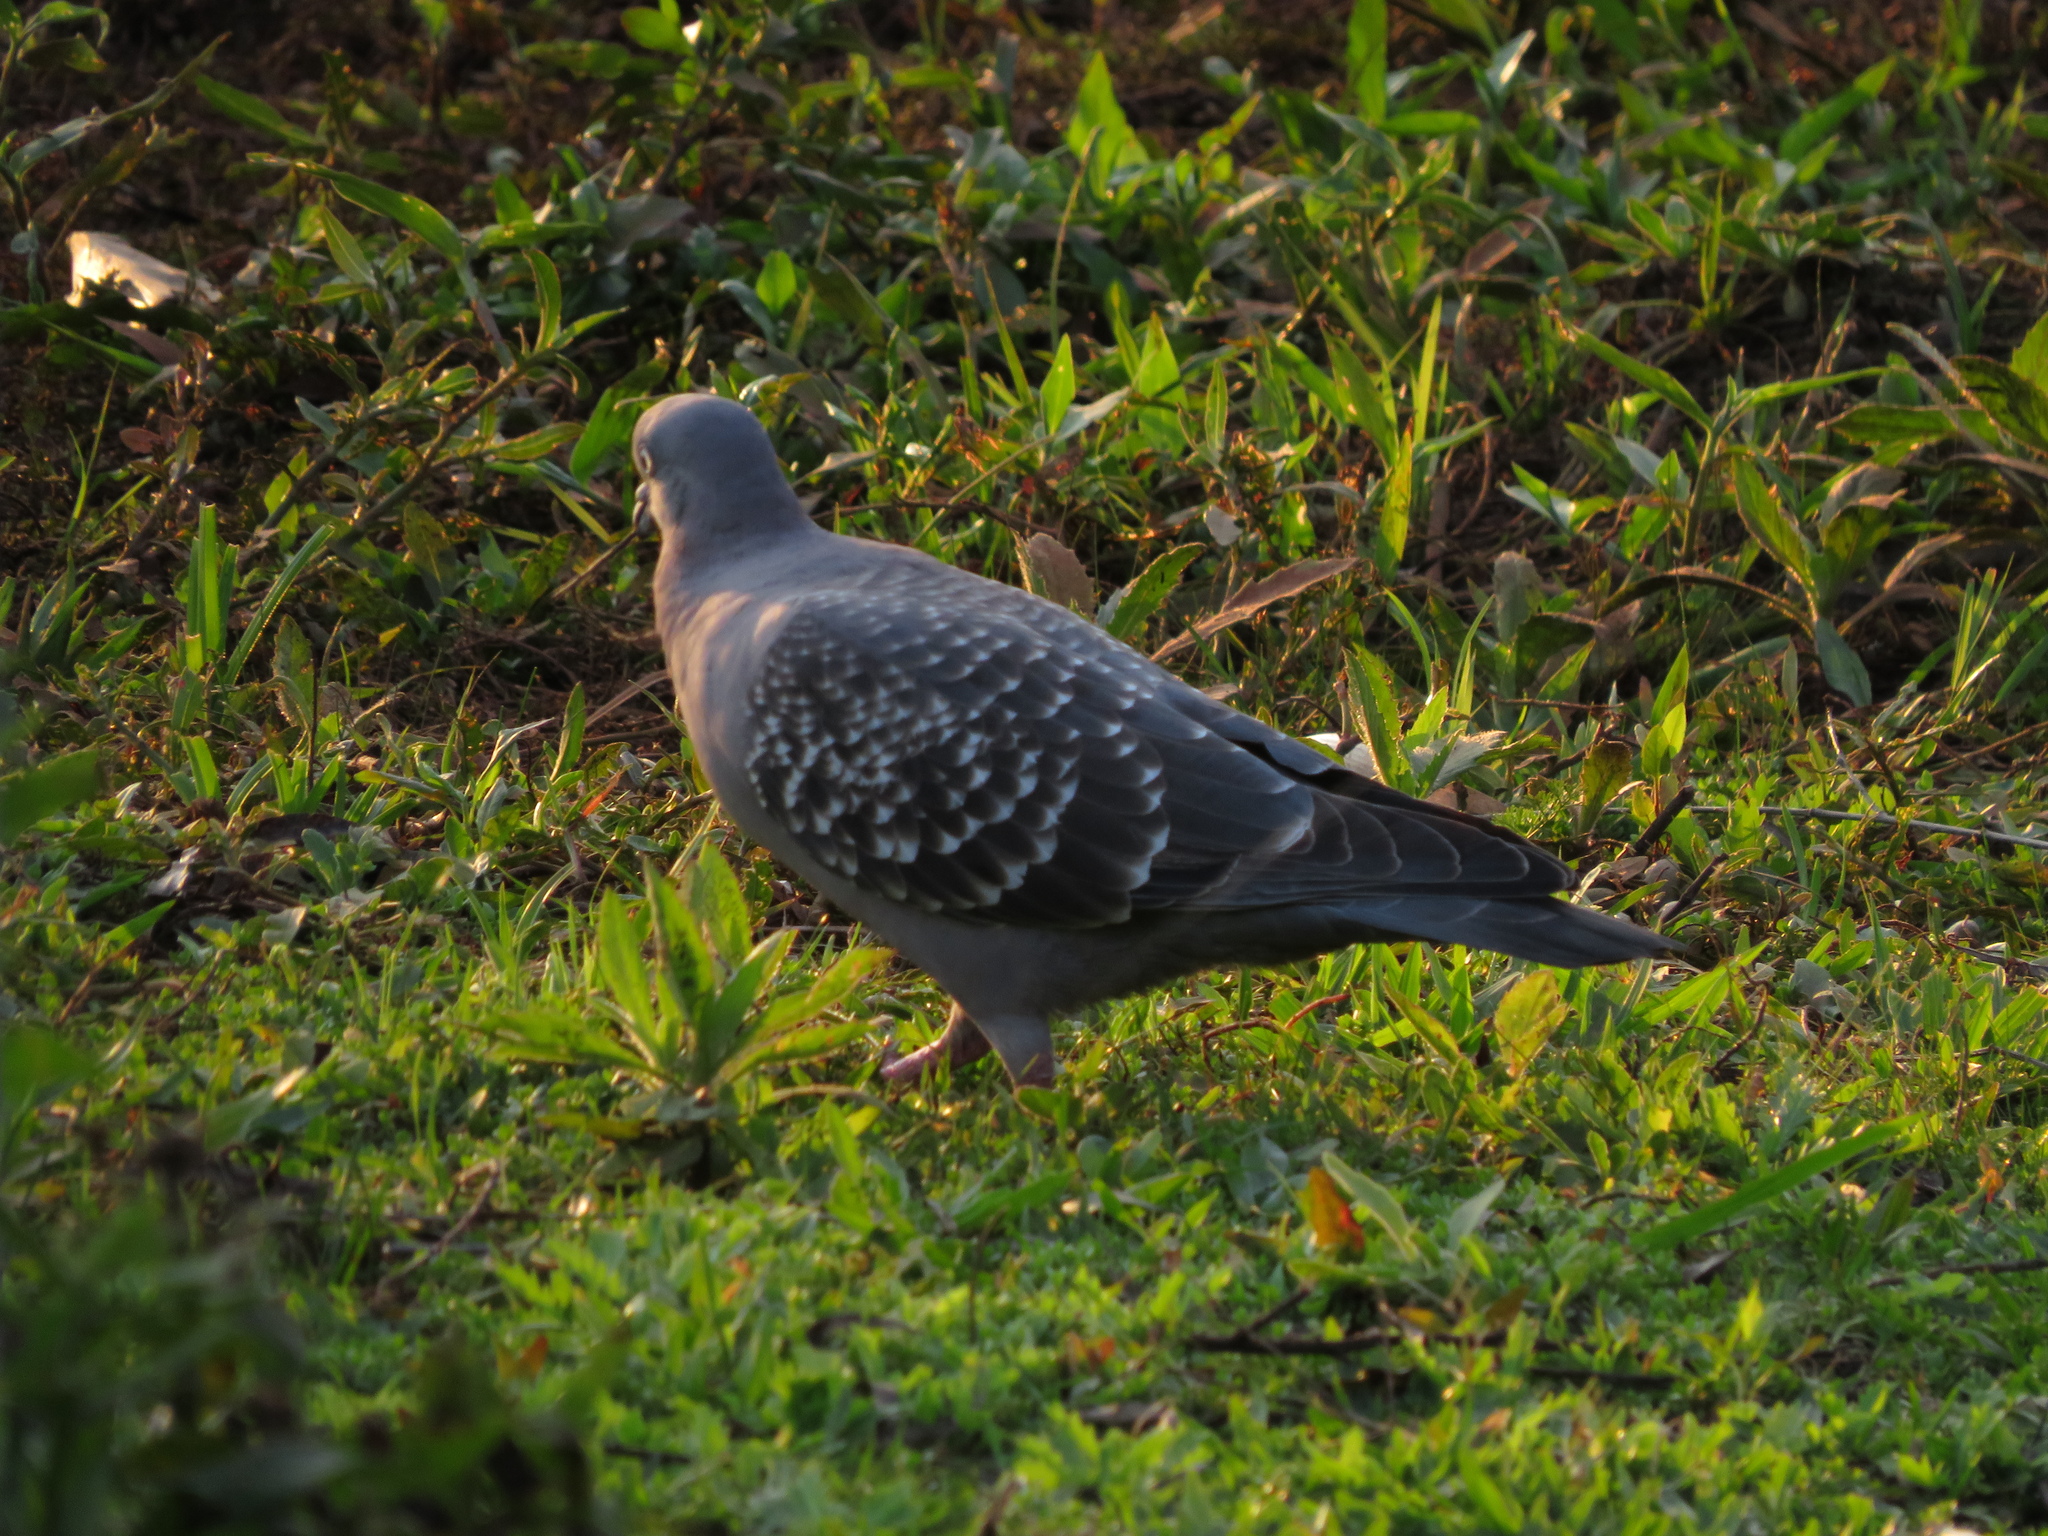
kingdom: Animalia
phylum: Chordata
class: Aves
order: Columbiformes
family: Columbidae
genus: Patagioenas
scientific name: Patagioenas maculosa
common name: Spot-winged pigeon
